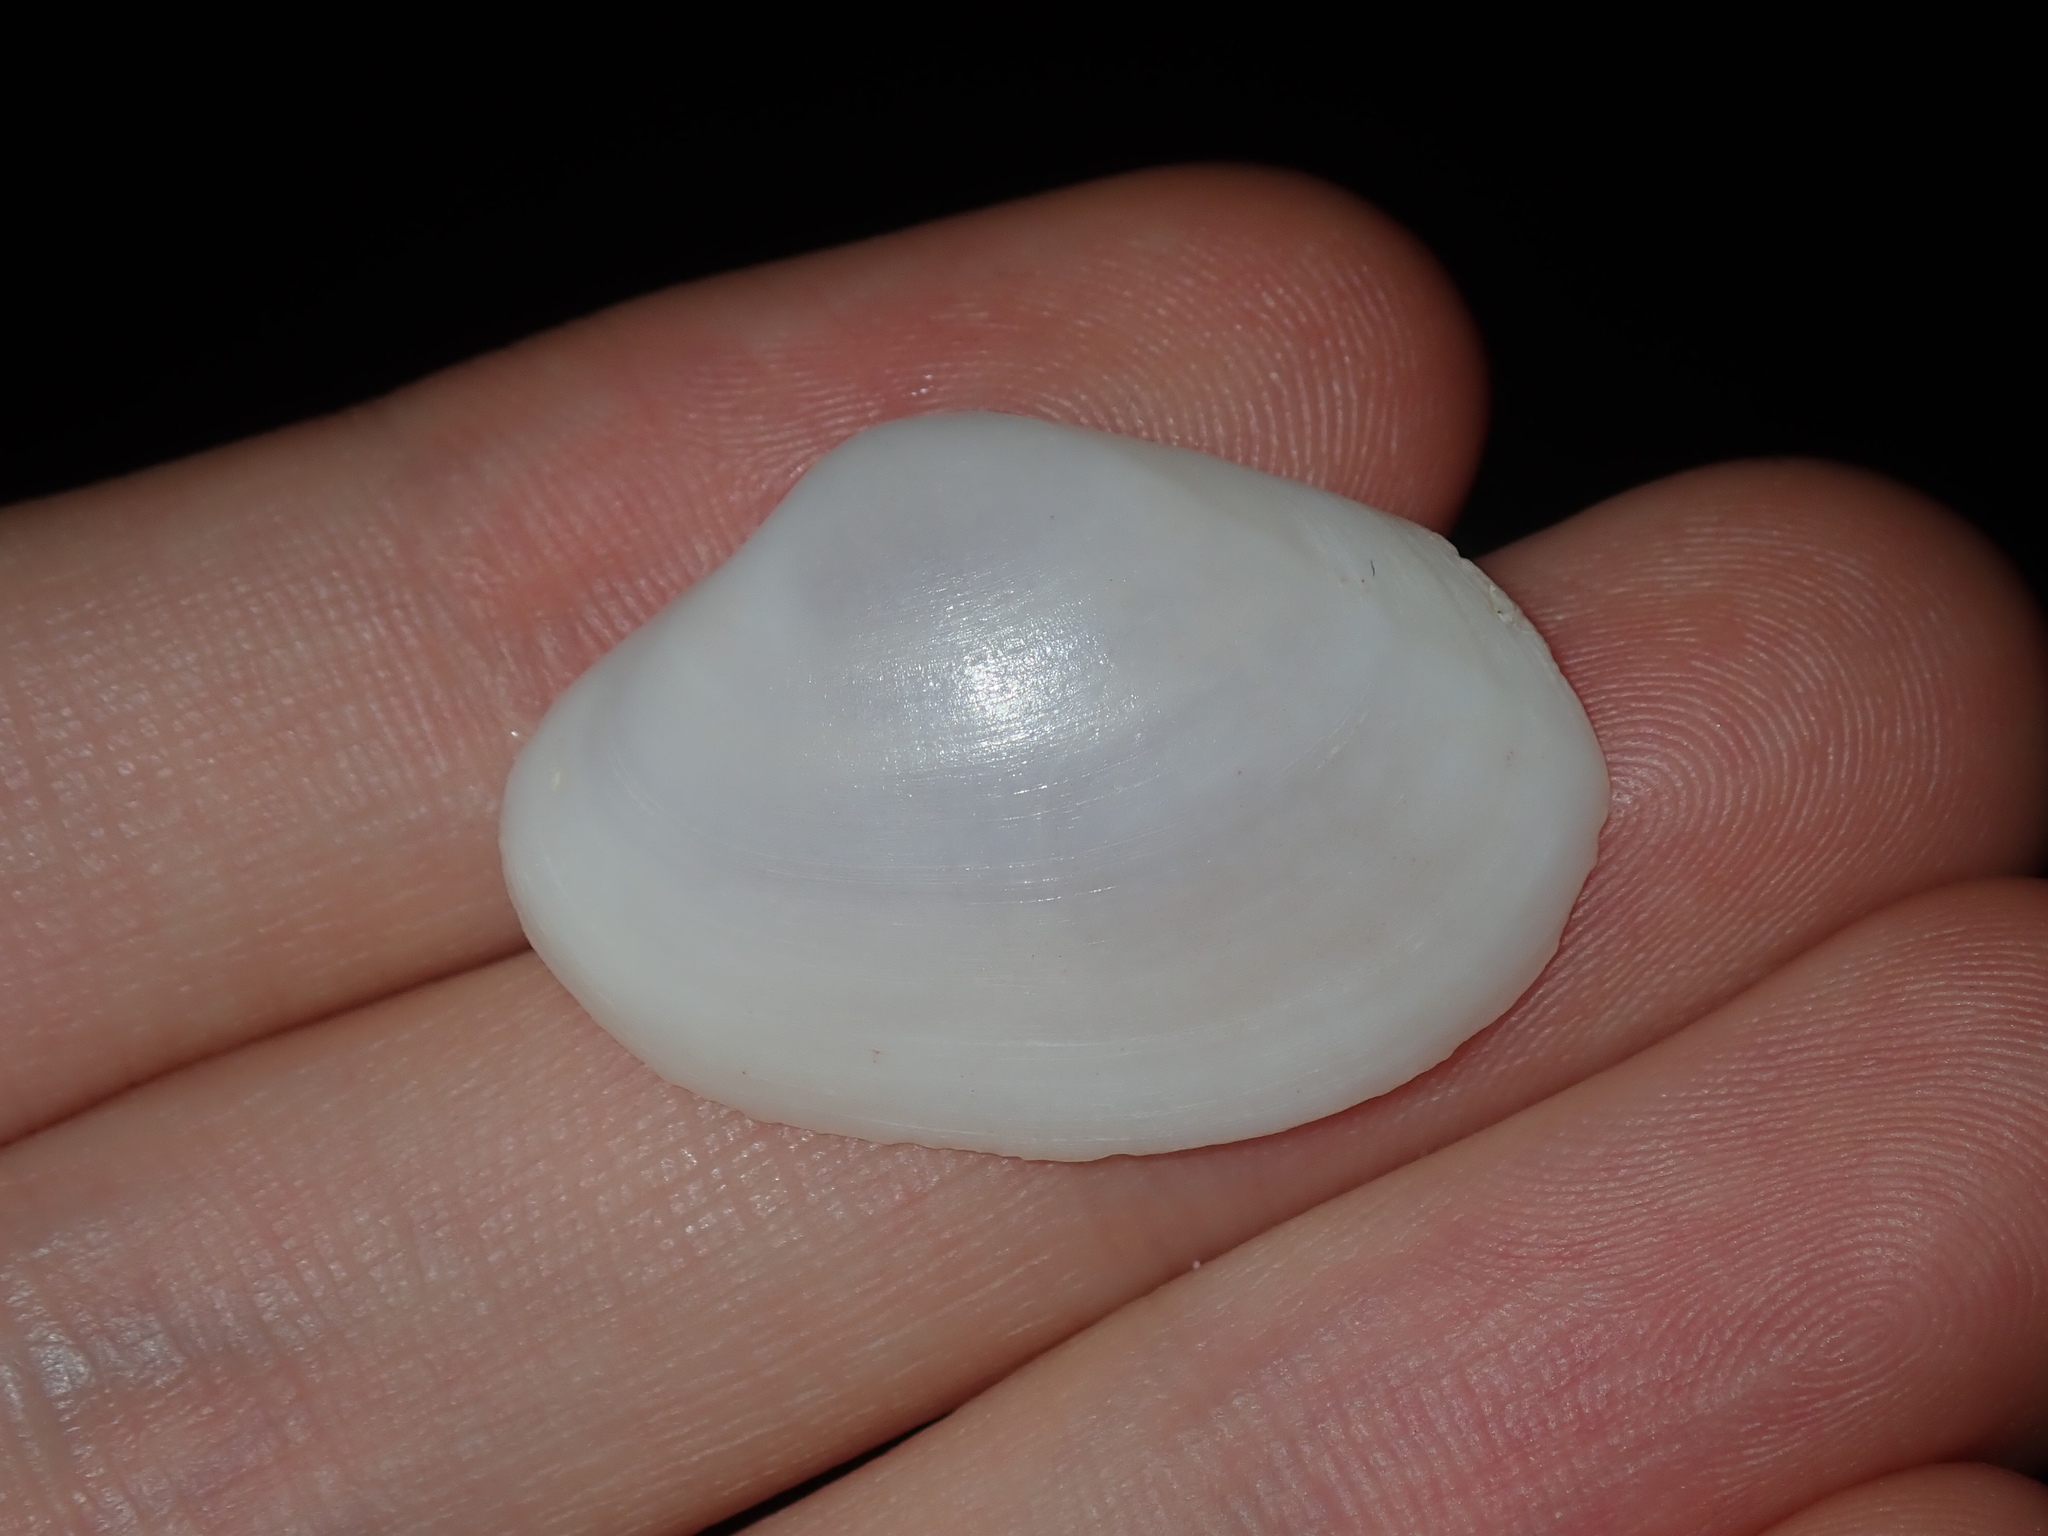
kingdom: Animalia
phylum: Mollusca
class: Bivalvia
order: Venerida
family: Mactridae
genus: Mactrotoma
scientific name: Mactrotoma antecedens
